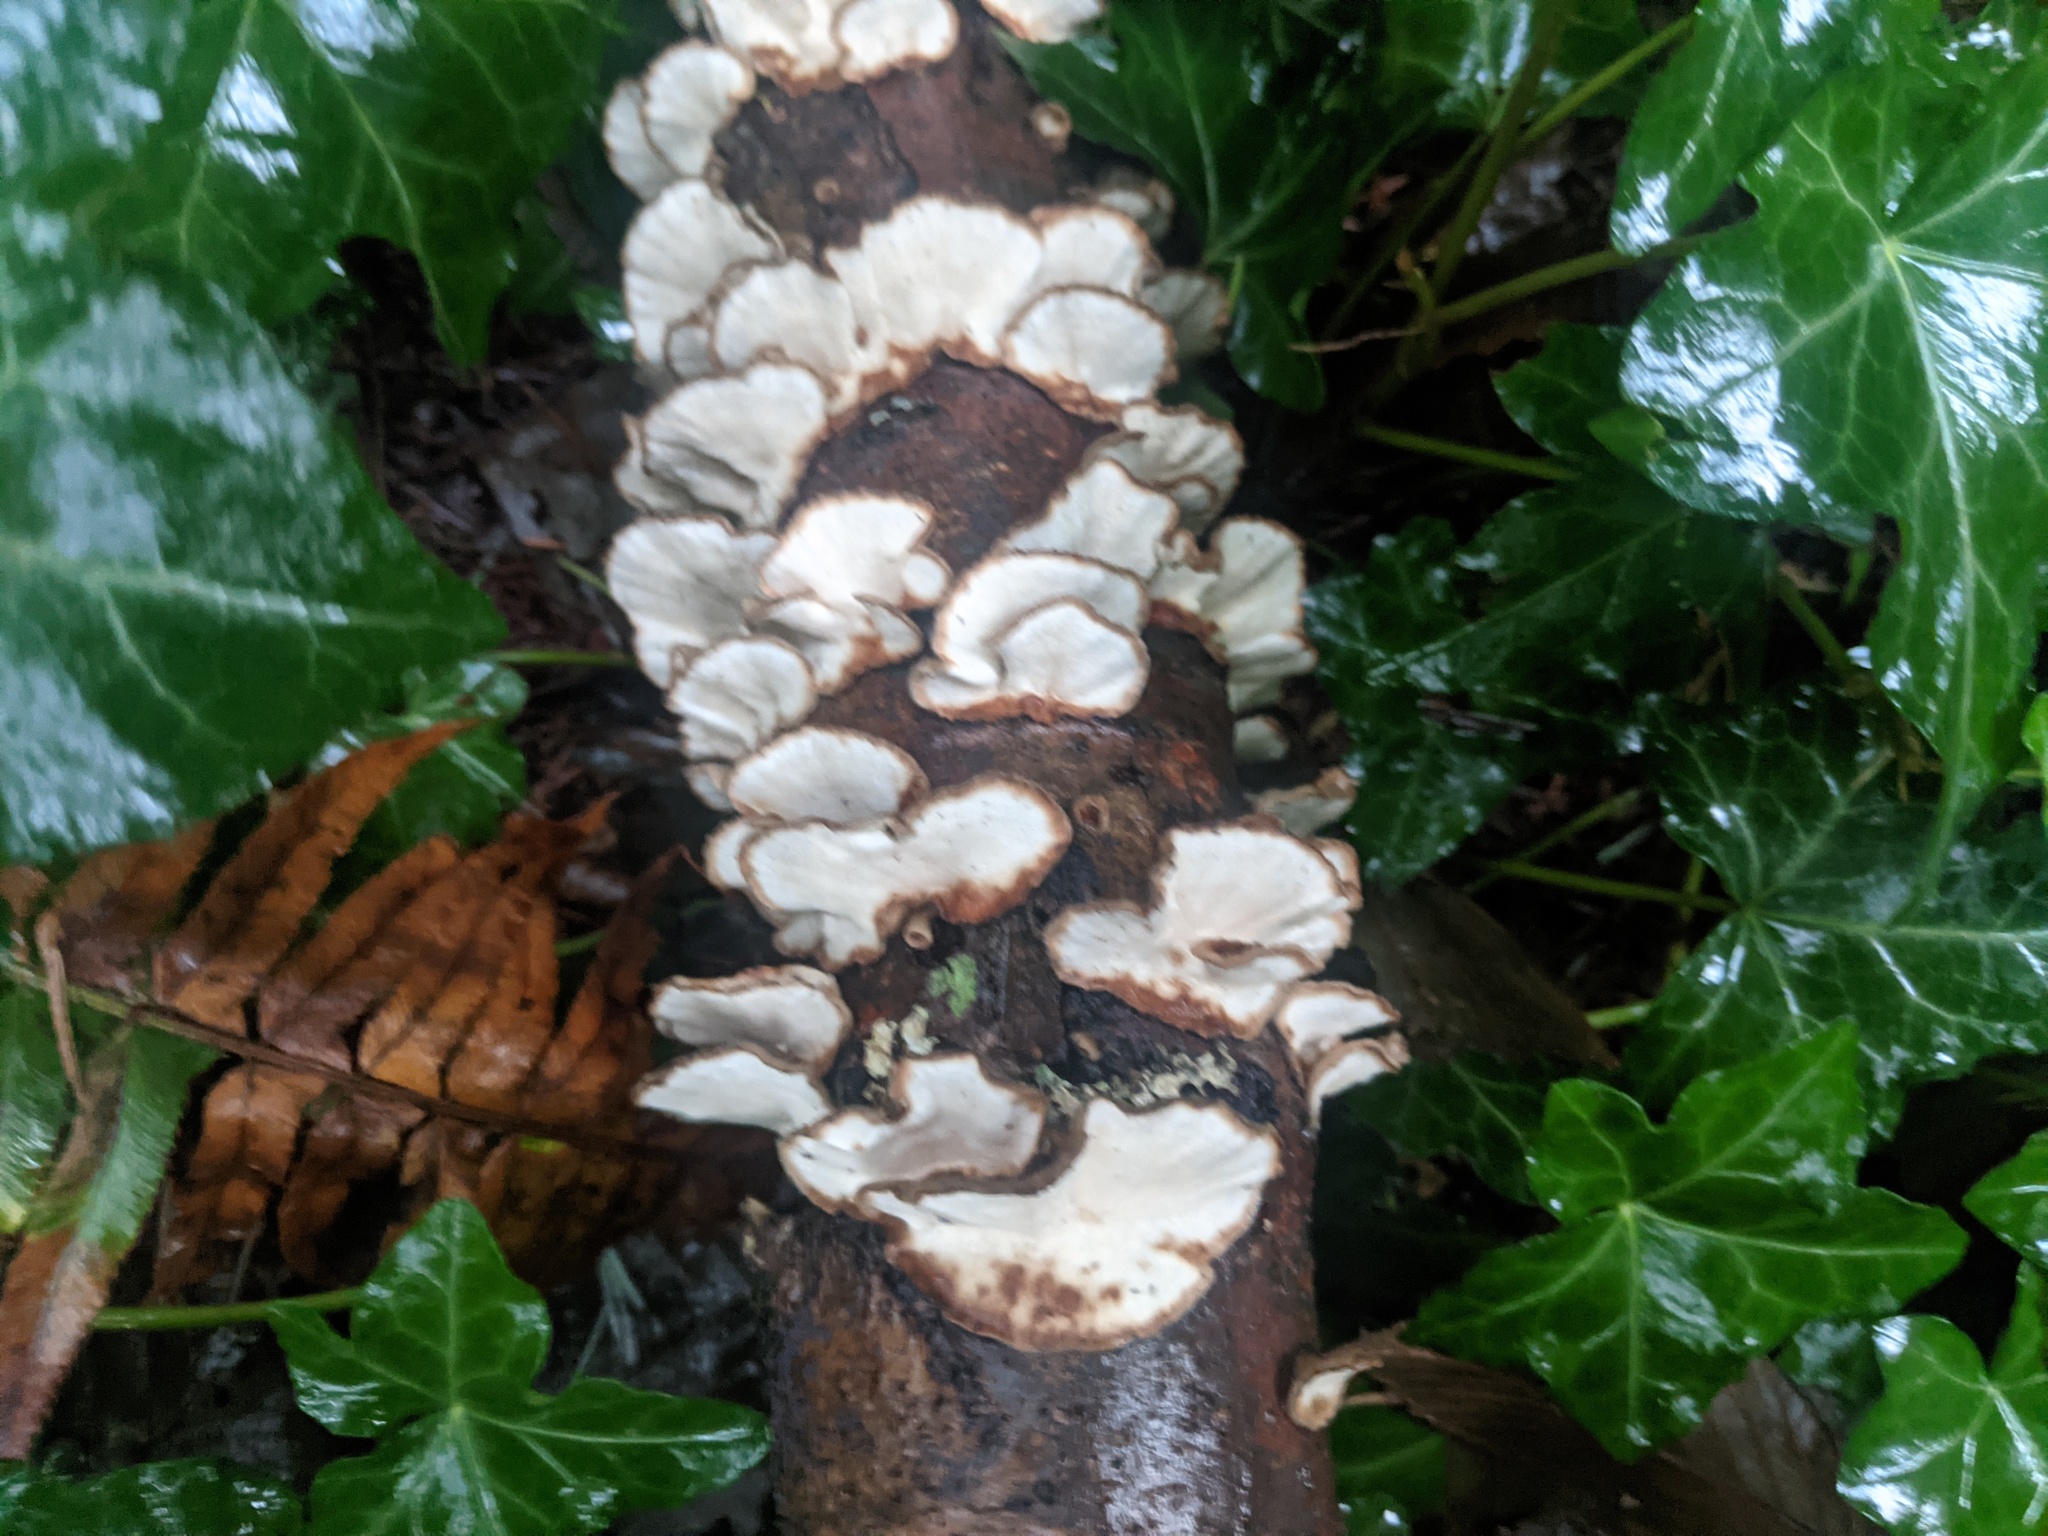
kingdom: Fungi
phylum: Basidiomycota
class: Agaricomycetes
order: Polyporales
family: Polyporaceae
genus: Trametes
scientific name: Trametes versicolor
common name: Turkeytail
